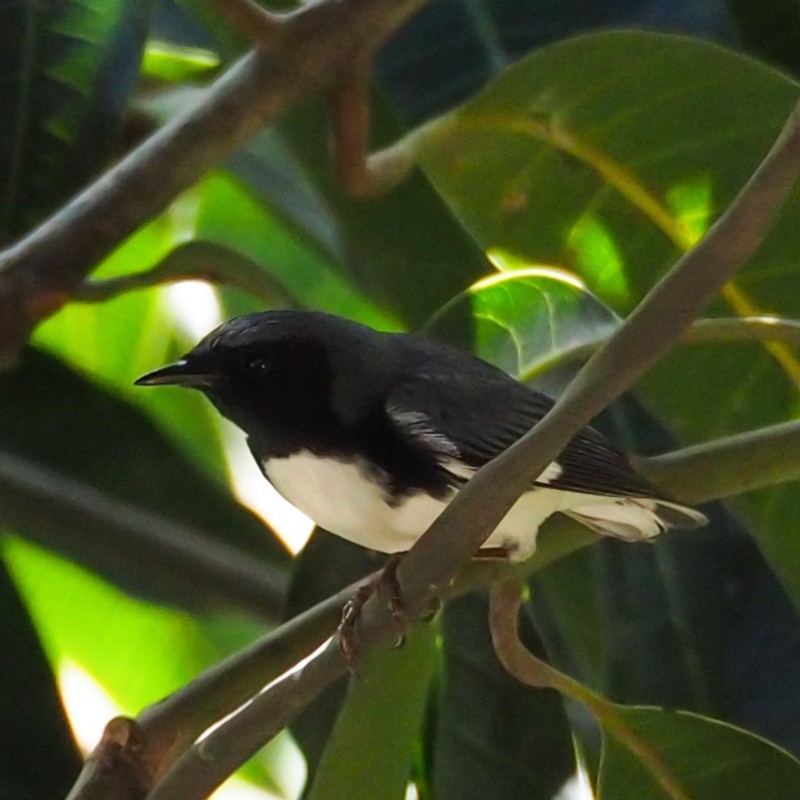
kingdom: Animalia
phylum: Chordata
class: Aves
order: Passeriformes
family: Parulidae
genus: Setophaga
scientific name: Setophaga caerulescens
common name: Black-throated blue warbler
